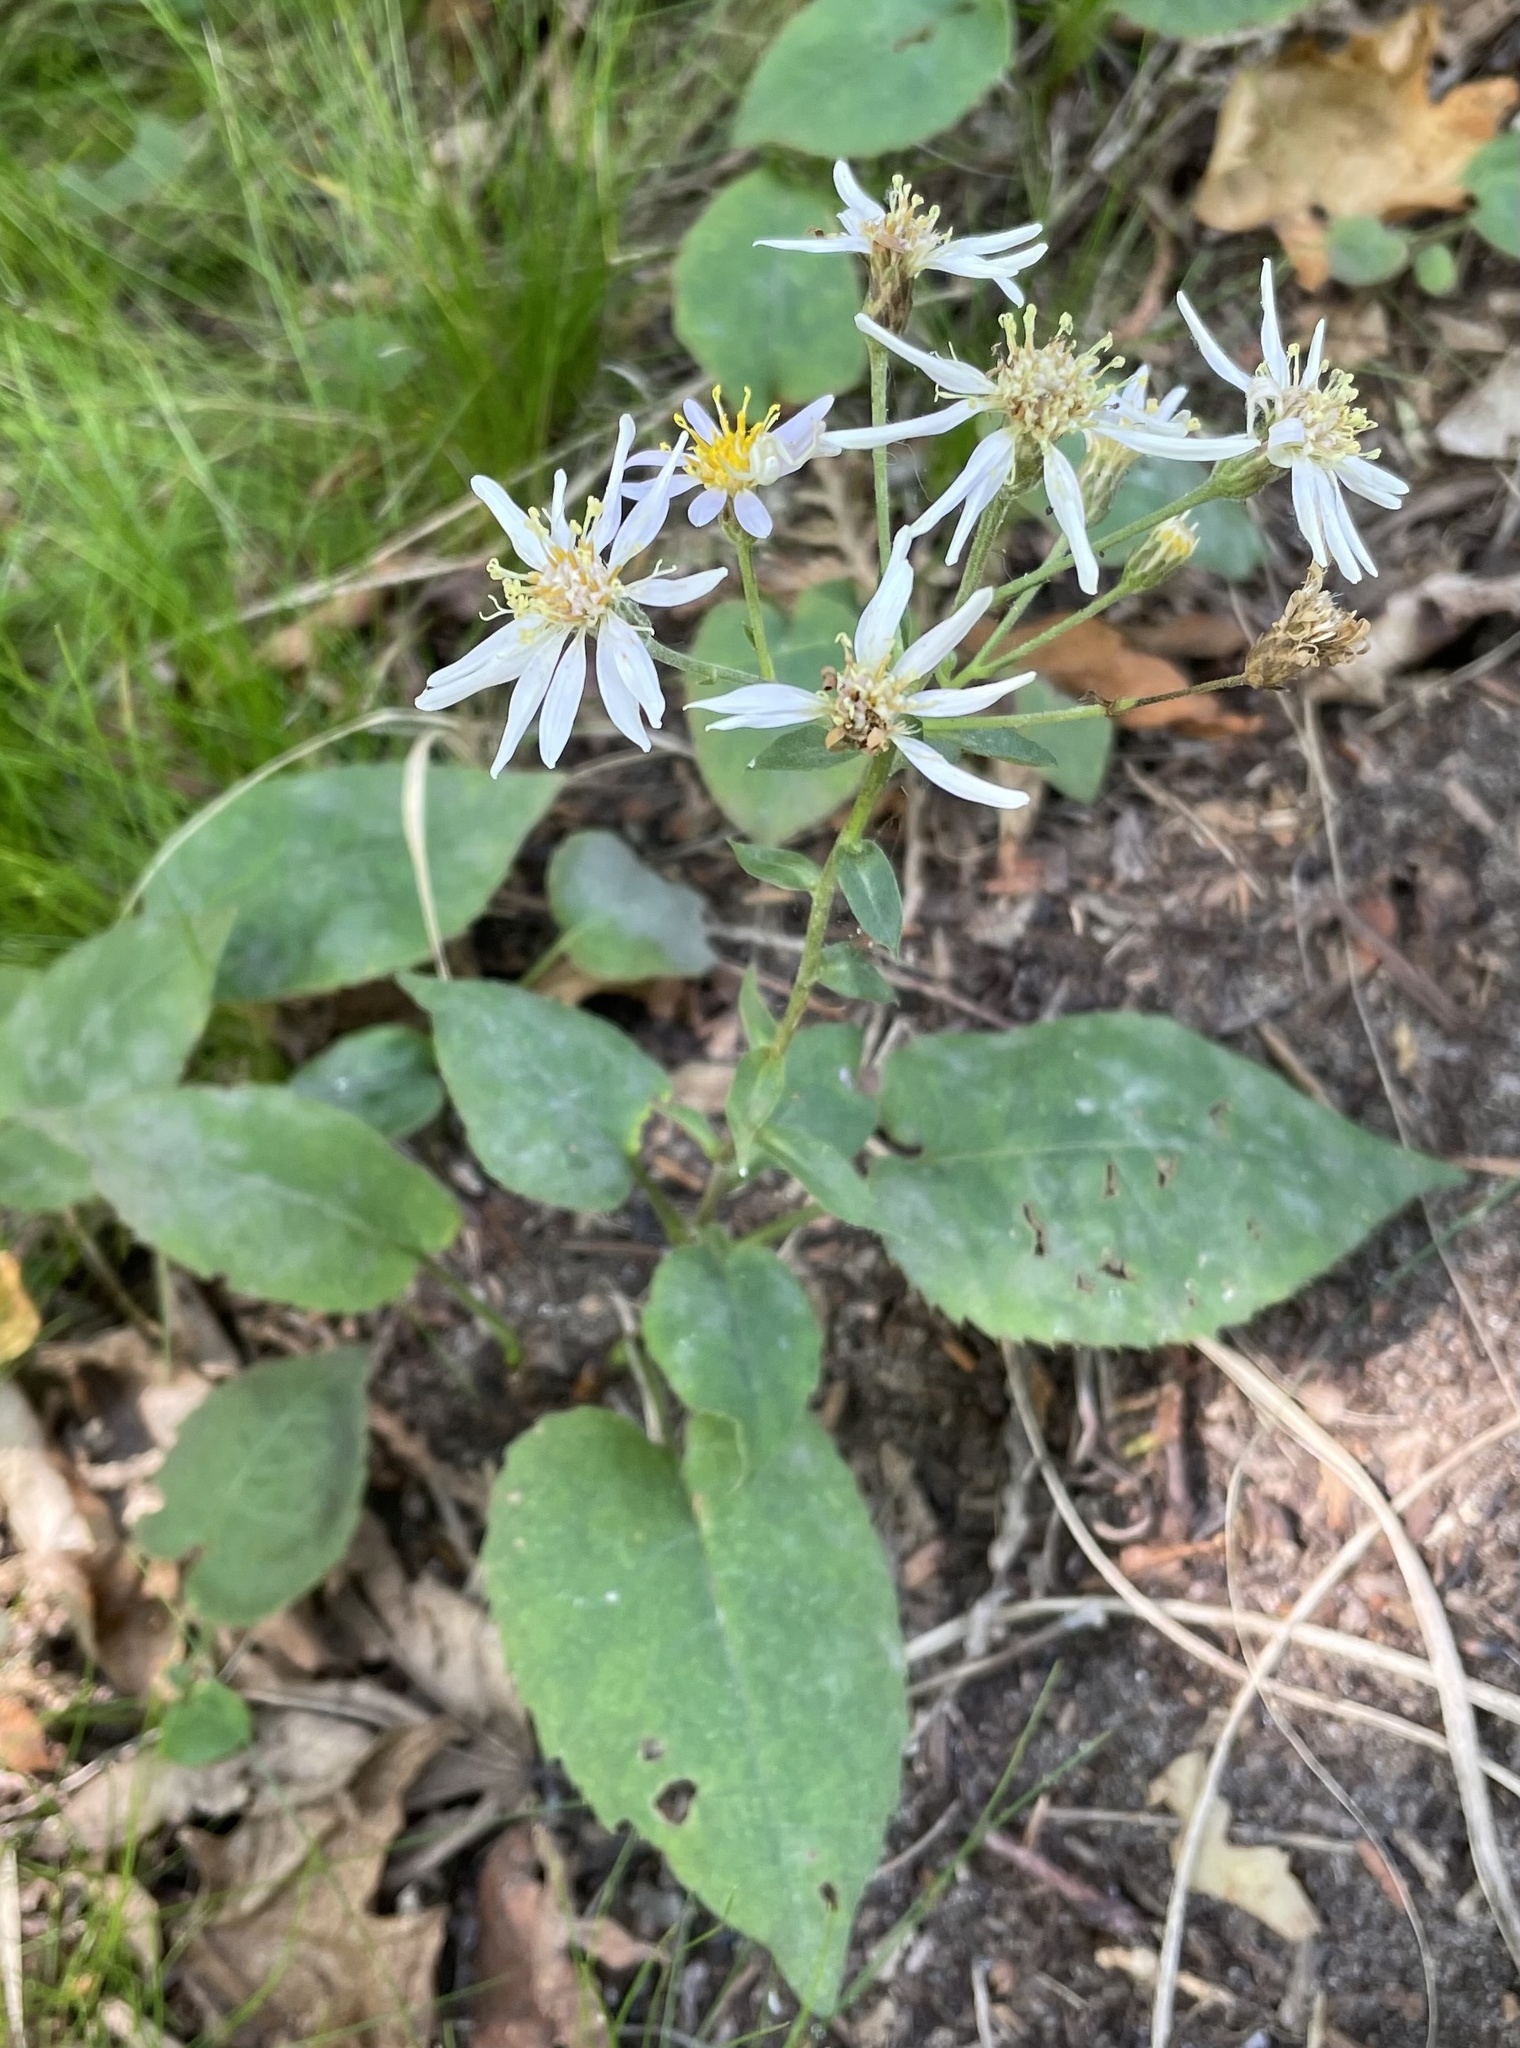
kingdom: Plantae
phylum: Tracheophyta
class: Magnoliopsida
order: Asterales
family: Asteraceae
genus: Eurybia
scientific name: Eurybia macrophylla
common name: Big-leaved aster
